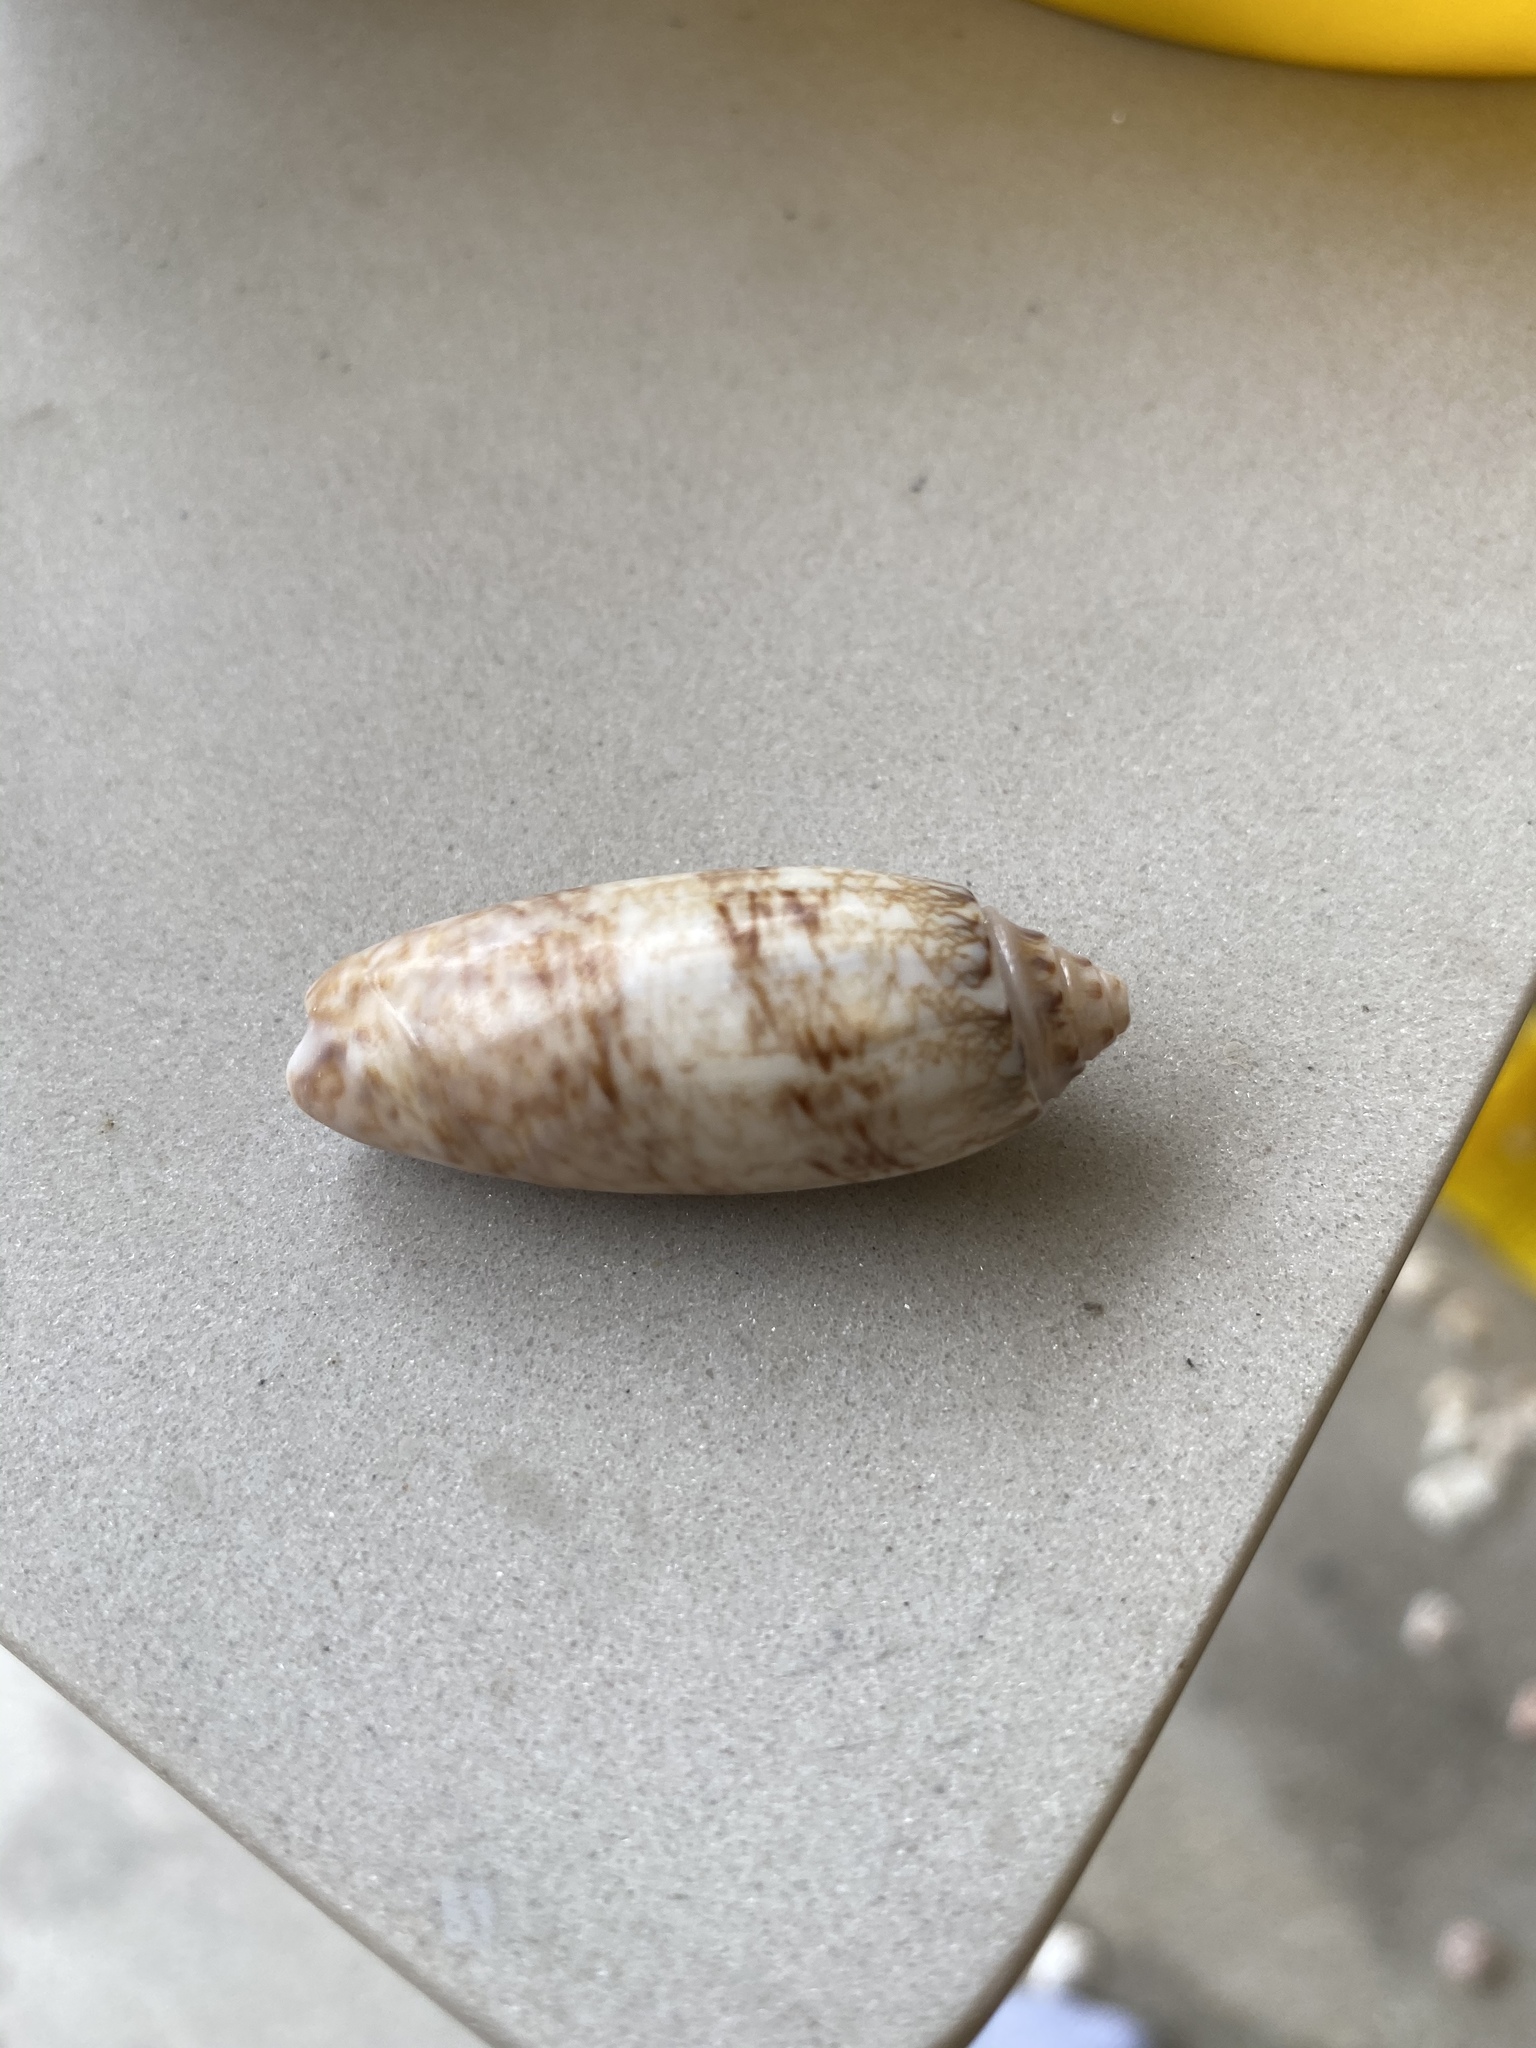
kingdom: Animalia
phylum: Mollusca
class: Gastropoda
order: Neogastropoda
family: Olividae
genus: Oliva
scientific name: Oliva sayana
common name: Lettered olive
